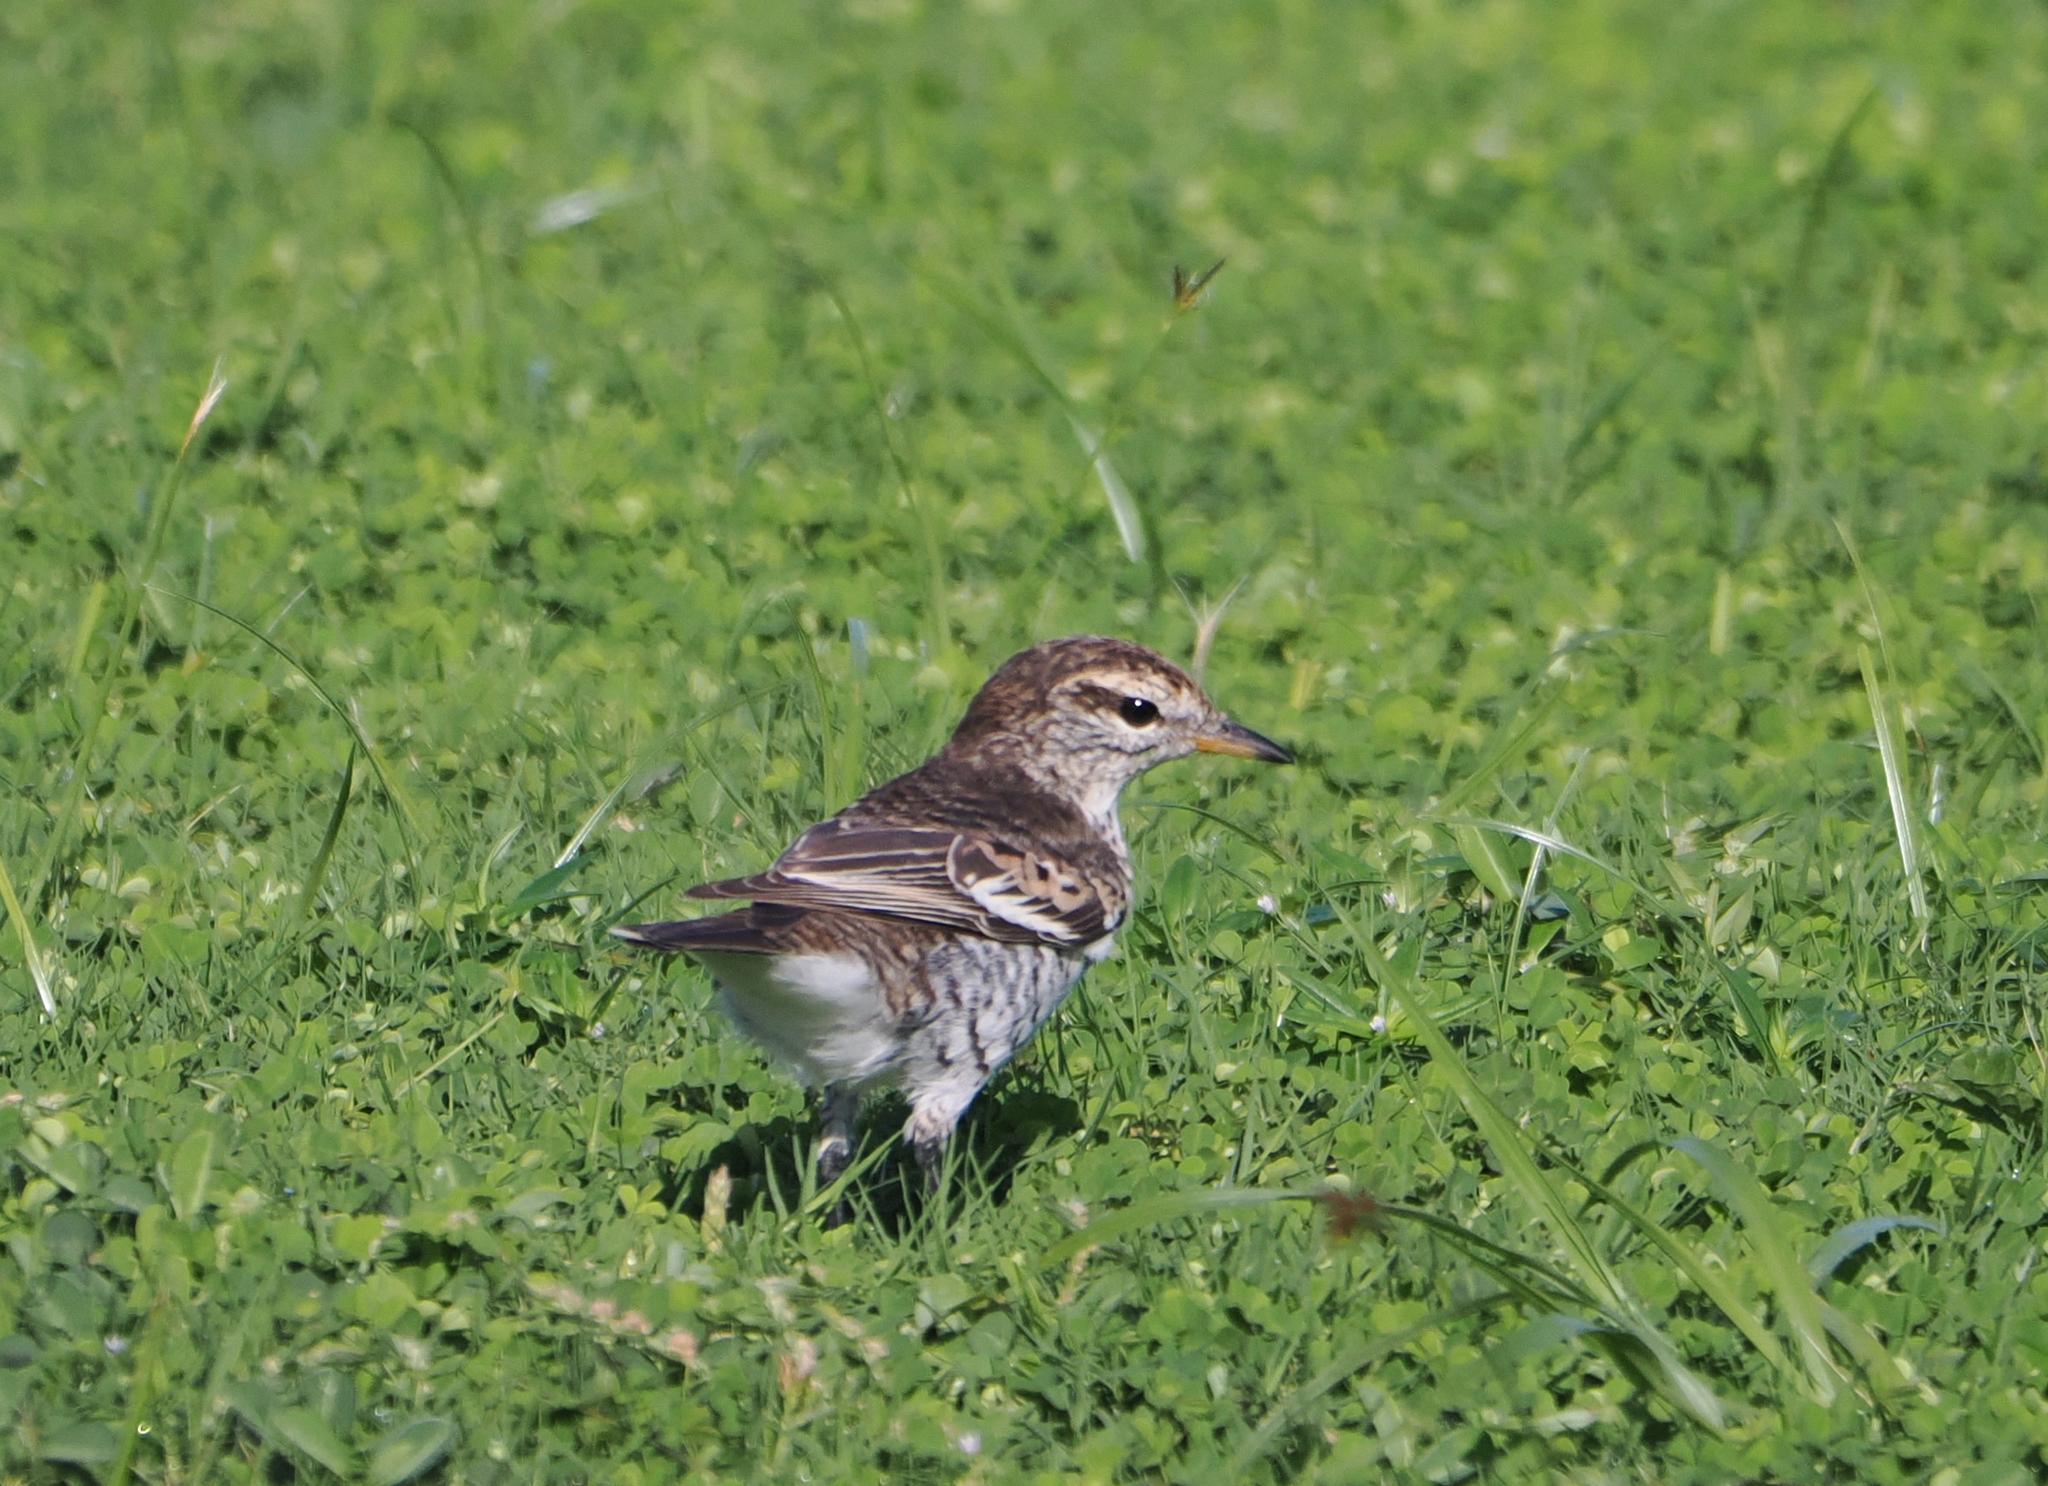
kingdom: Animalia
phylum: Chordata
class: Aves
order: Passeriformes
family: Campephagidae
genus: Lalage
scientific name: Lalage maculosa
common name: Polynesian triller
